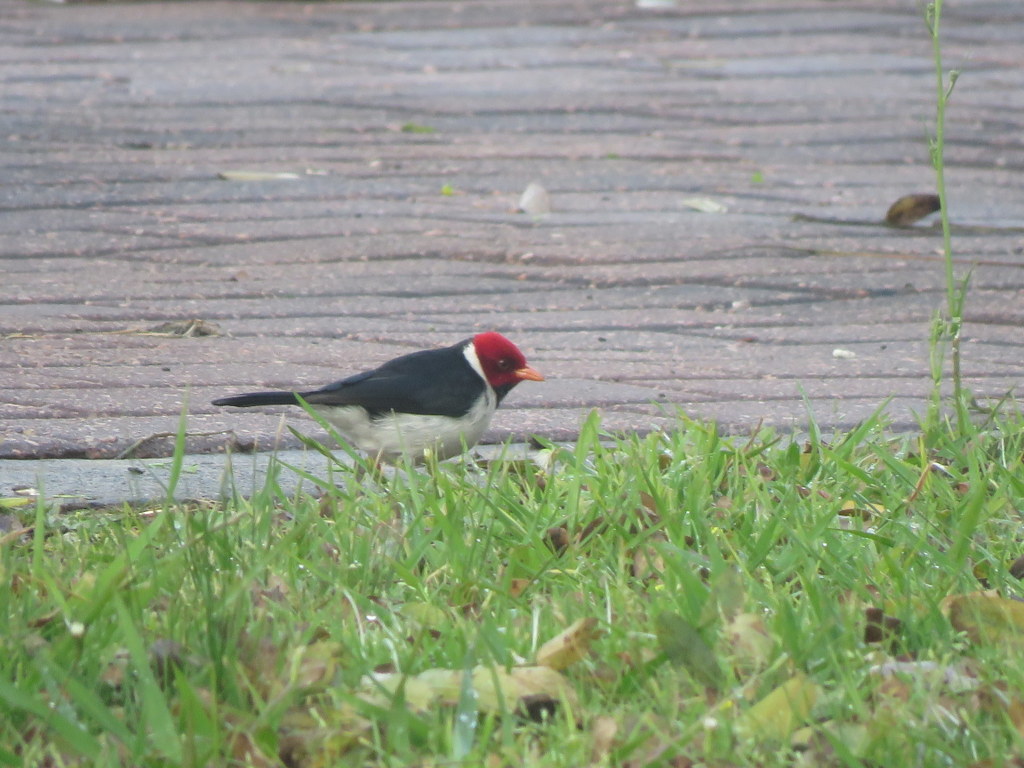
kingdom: Animalia
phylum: Chordata
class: Aves
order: Passeriformes
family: Thraupidae
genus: Paroaria
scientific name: Paroaria capitata
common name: Yellow-billed cardinal
